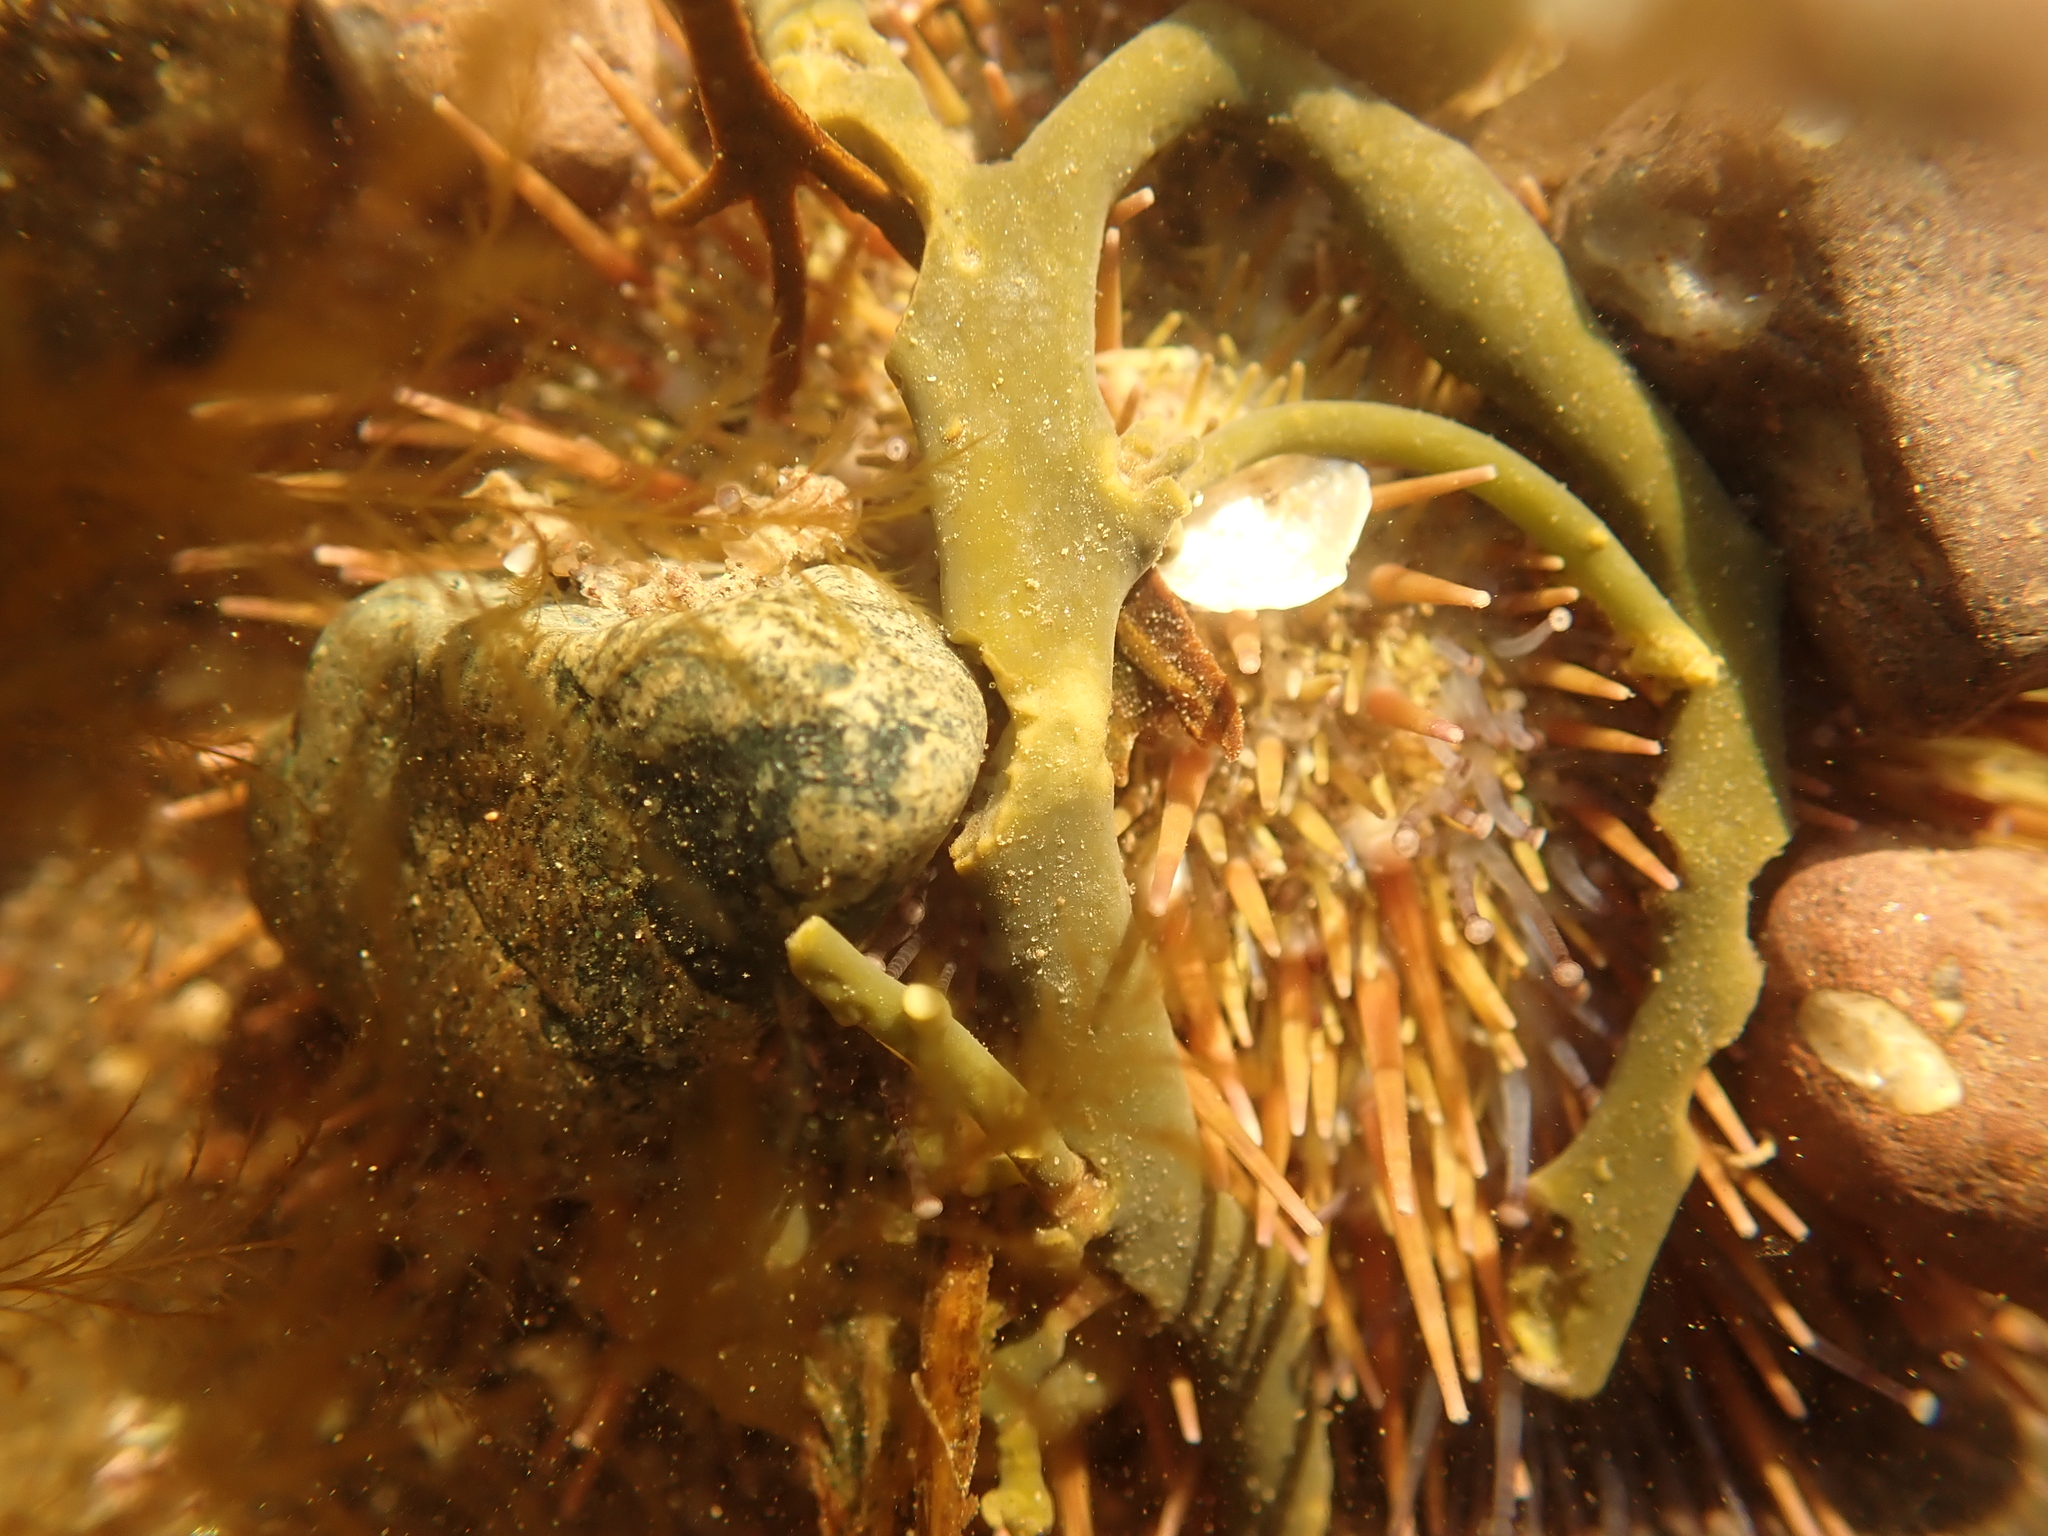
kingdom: Animalia
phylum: Echinodermata
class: Echinoidea
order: Camarodonta
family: Strongylocentrotidae
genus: Strongylocentrotus
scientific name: Strongylocentrotus droebachiensis
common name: Northern sea urchin
